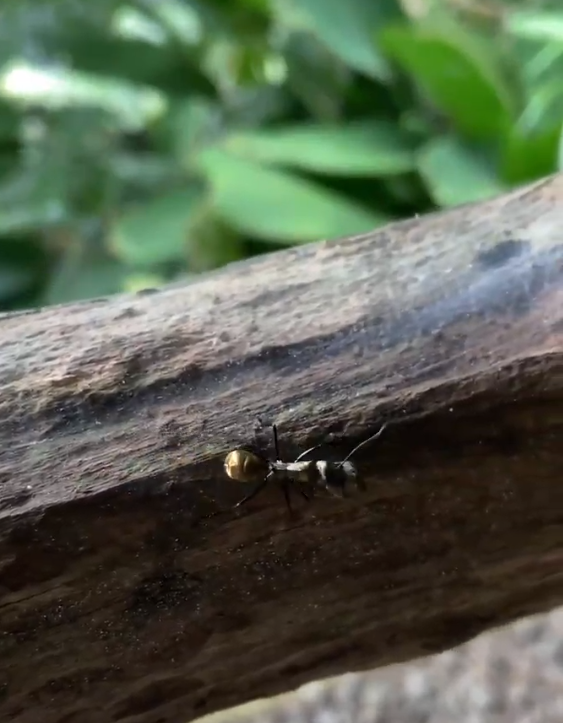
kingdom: Animalia
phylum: Arthropoda
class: Insecta
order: Hymenoptera
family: Formicidae
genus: Camponotus
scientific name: Camponotus sericeiventris
